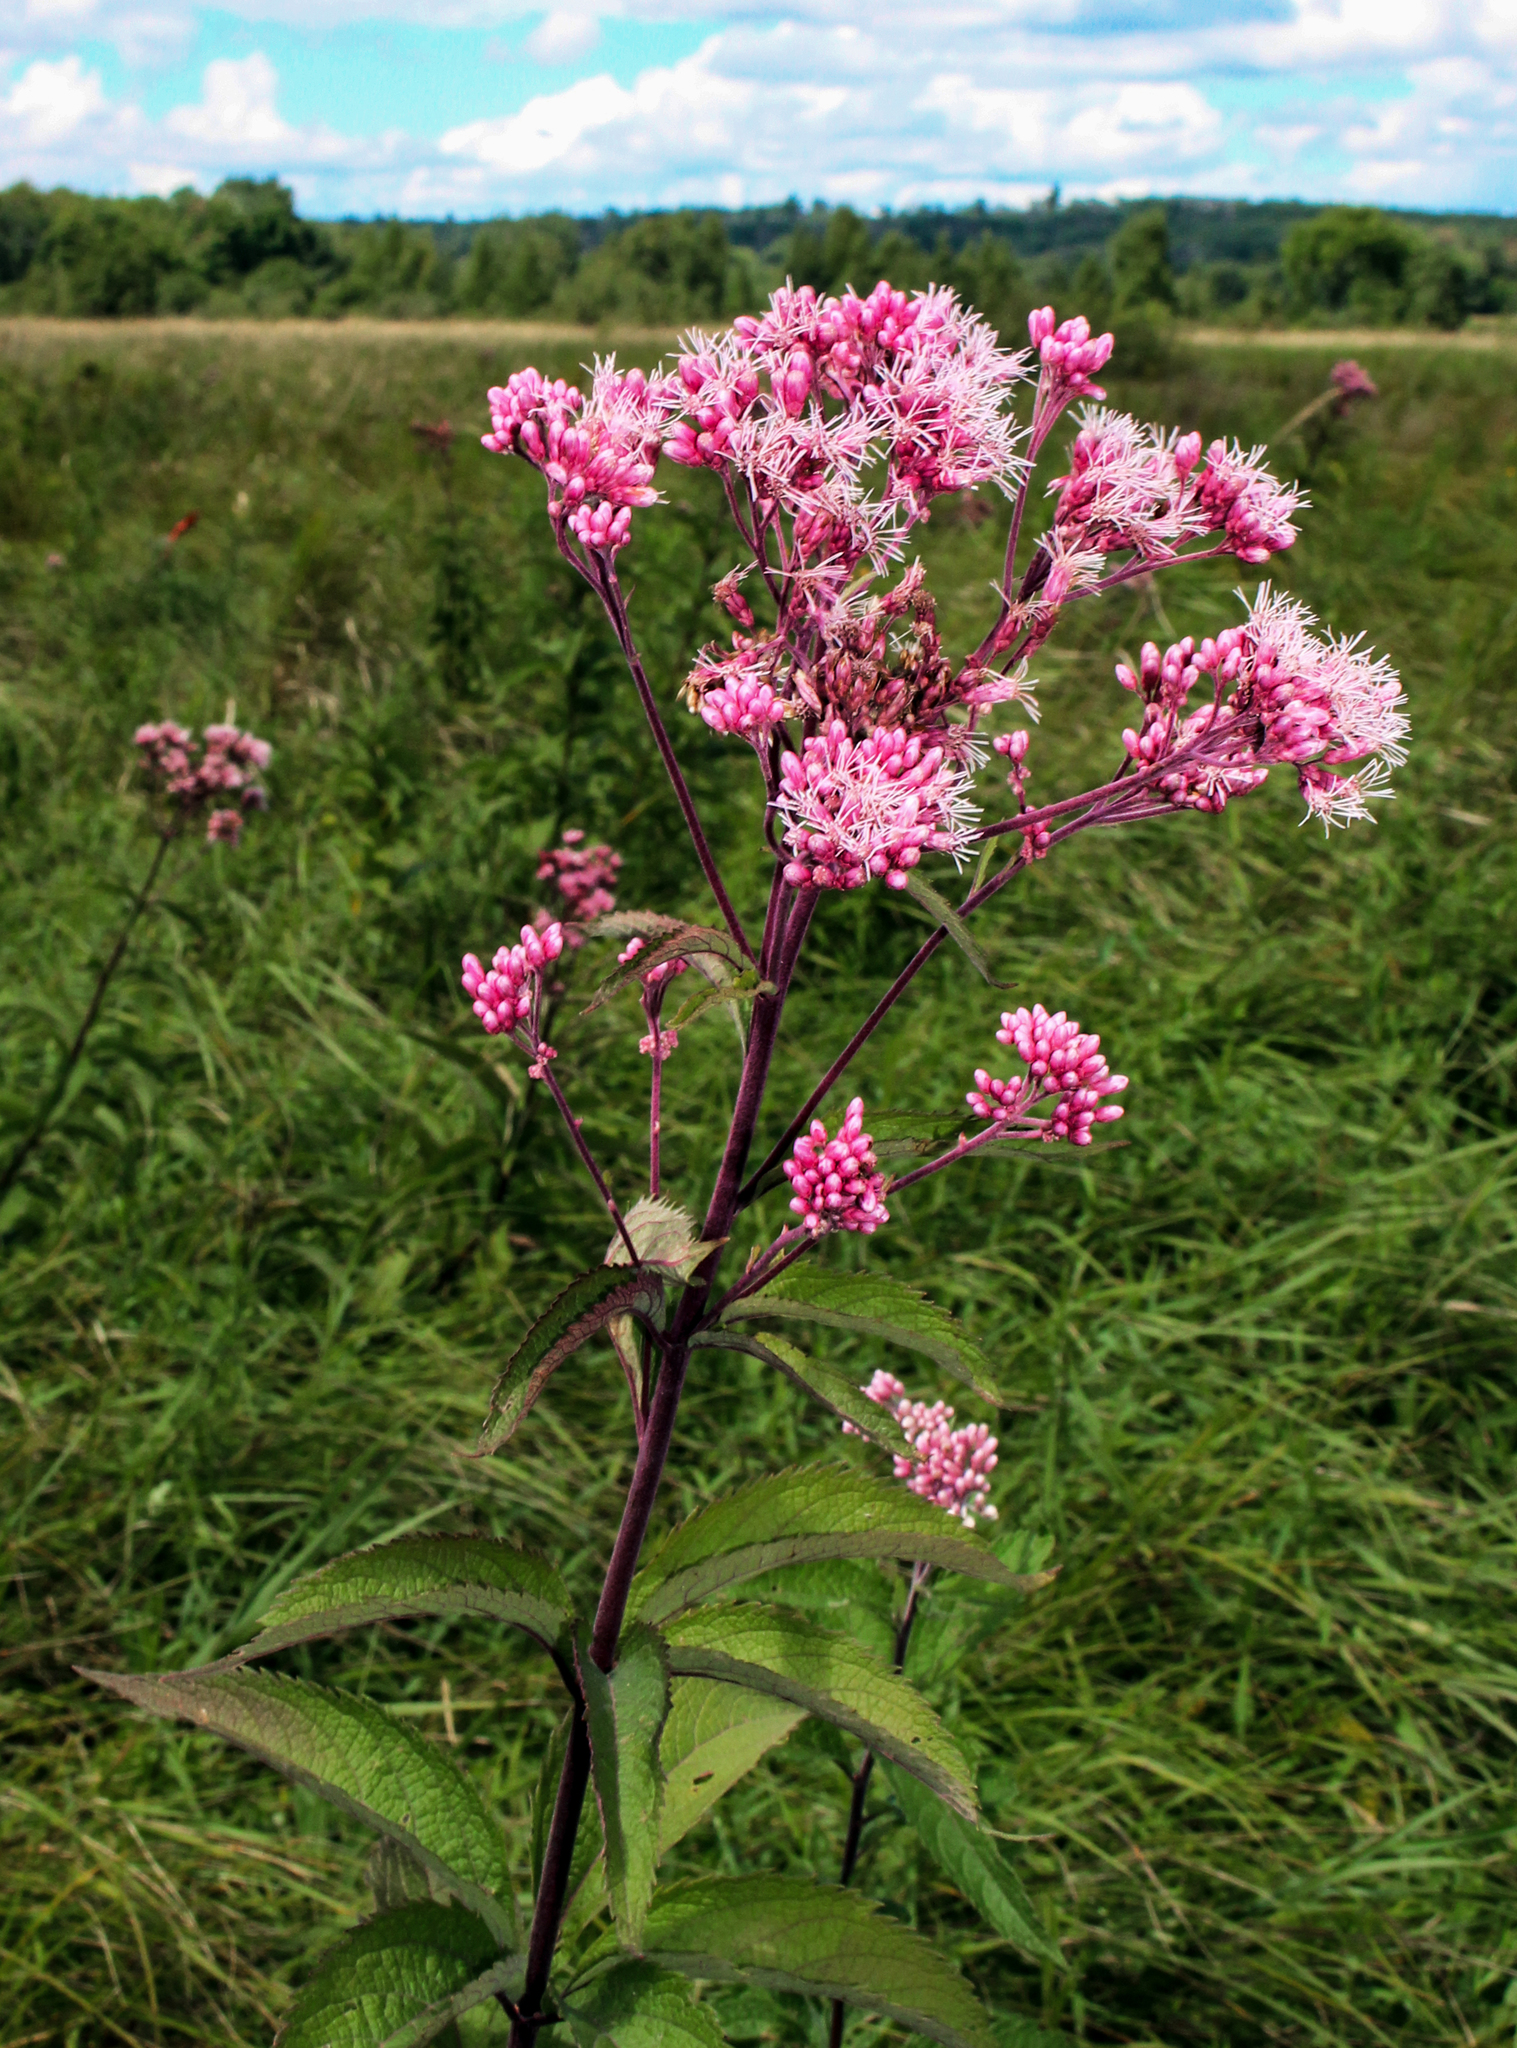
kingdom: Plantae
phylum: Tracheophyta
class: Magnoliopsida
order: Asterales
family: Asteraceae
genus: Eutrochium
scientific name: Eutrochium maculatum
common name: Spotted joe pye weed
